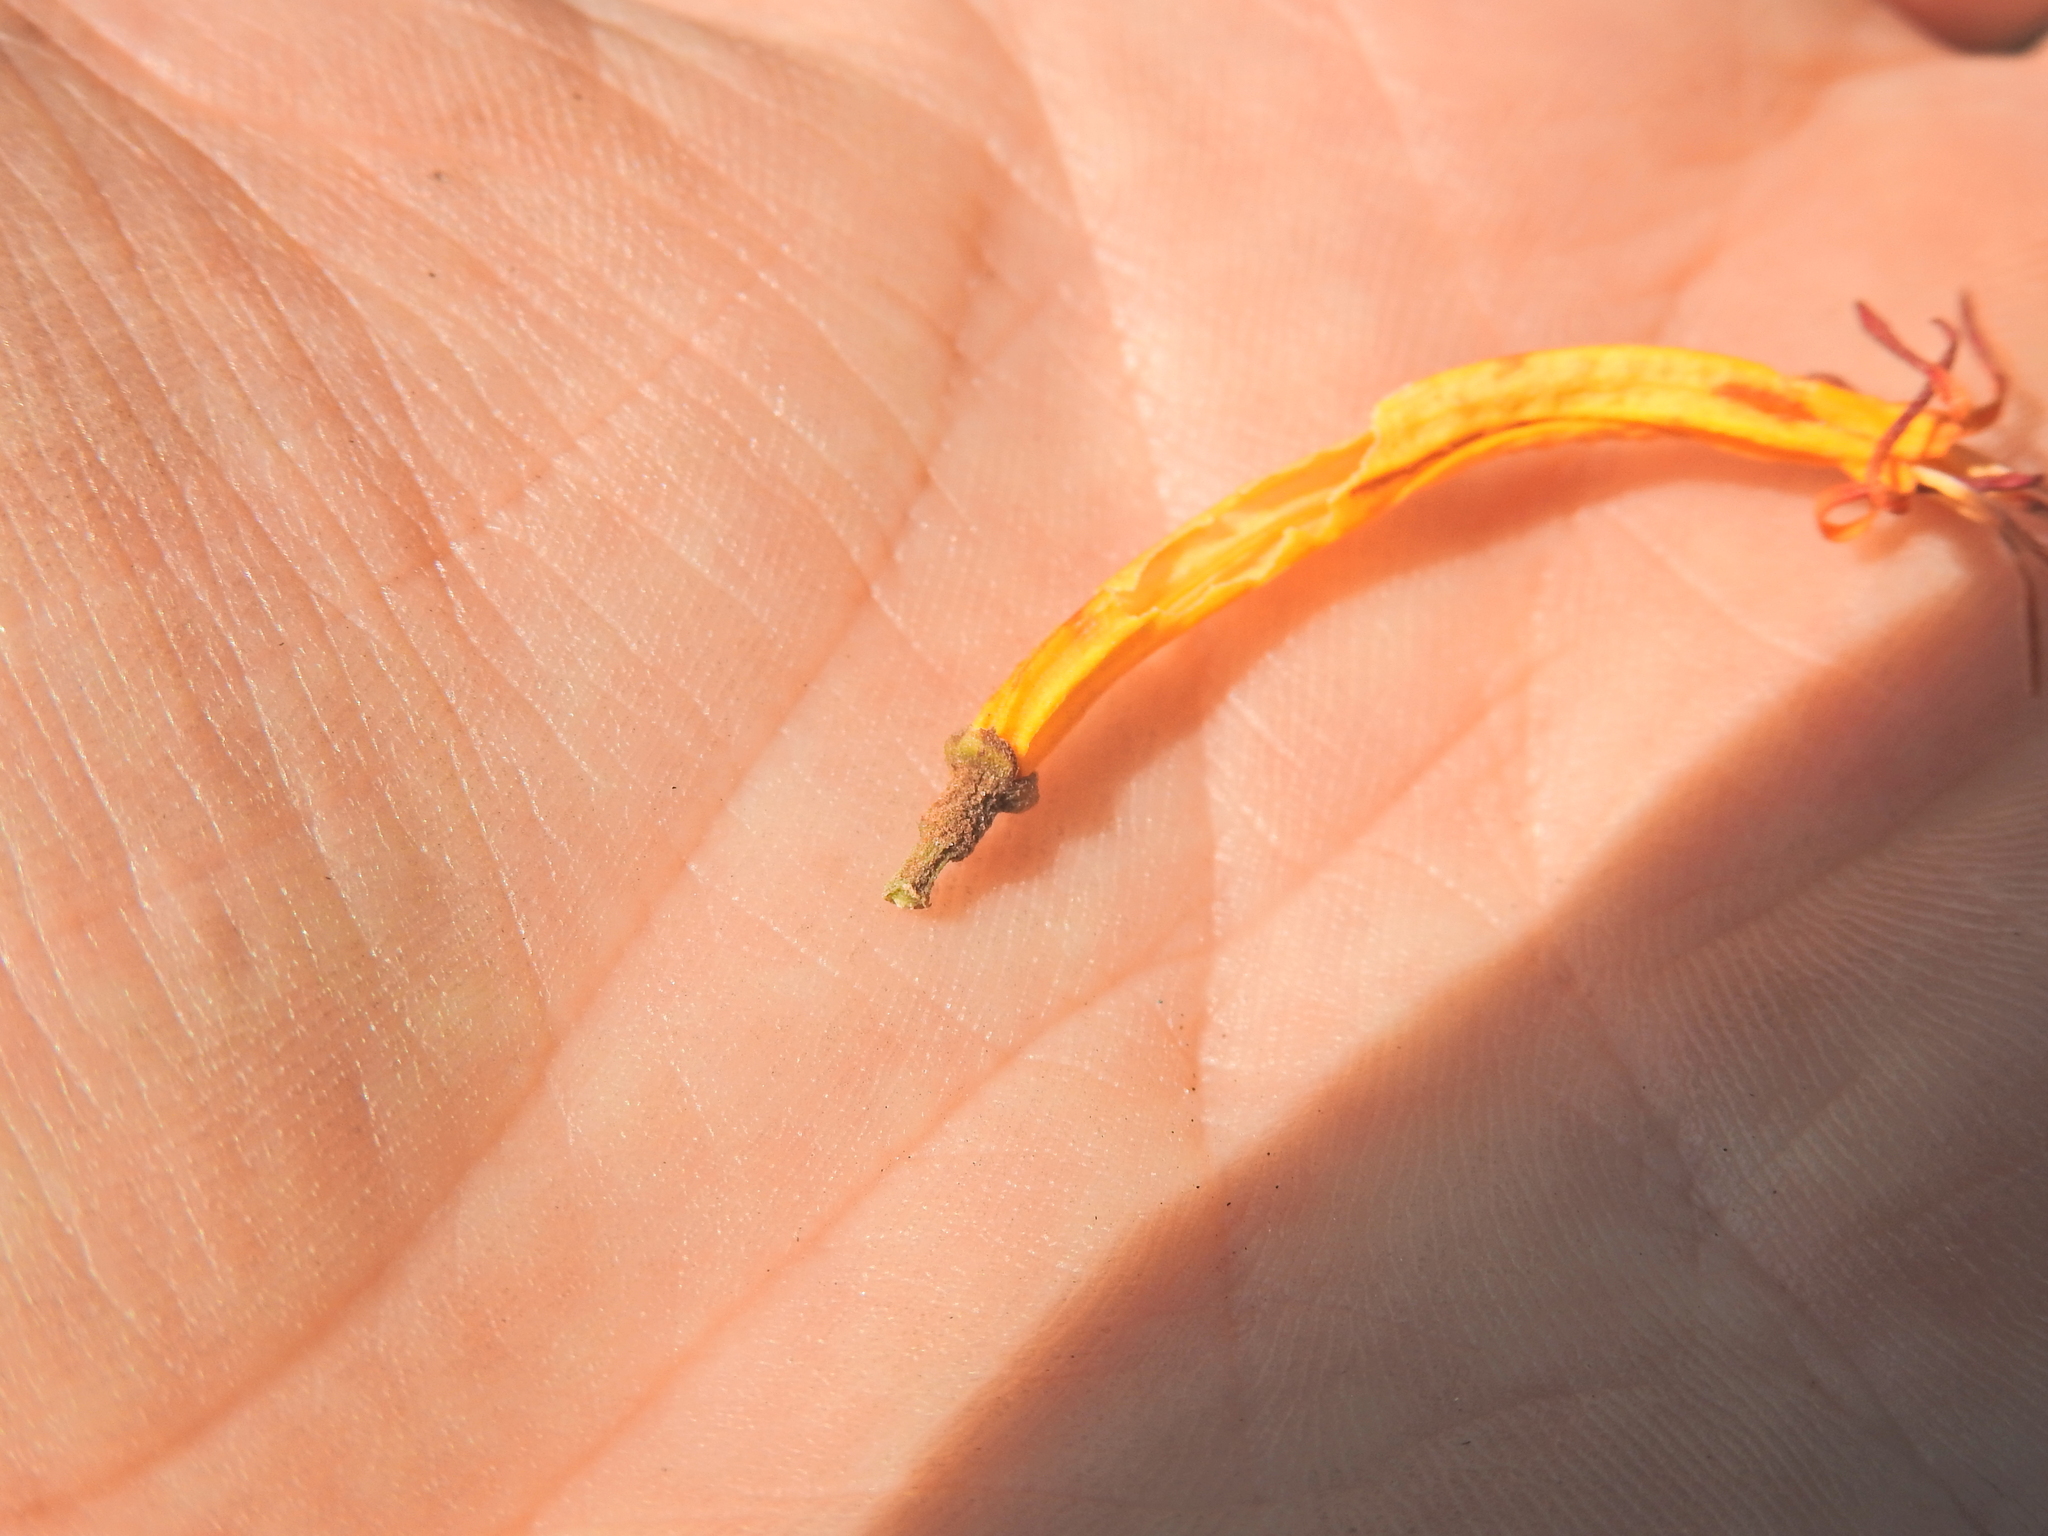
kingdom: Plantae
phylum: Tracheophyta
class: Magnoliopsida
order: Santalales
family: Loranthaceae
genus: Dendrophthoe
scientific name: Dendrophthoe vitellina
